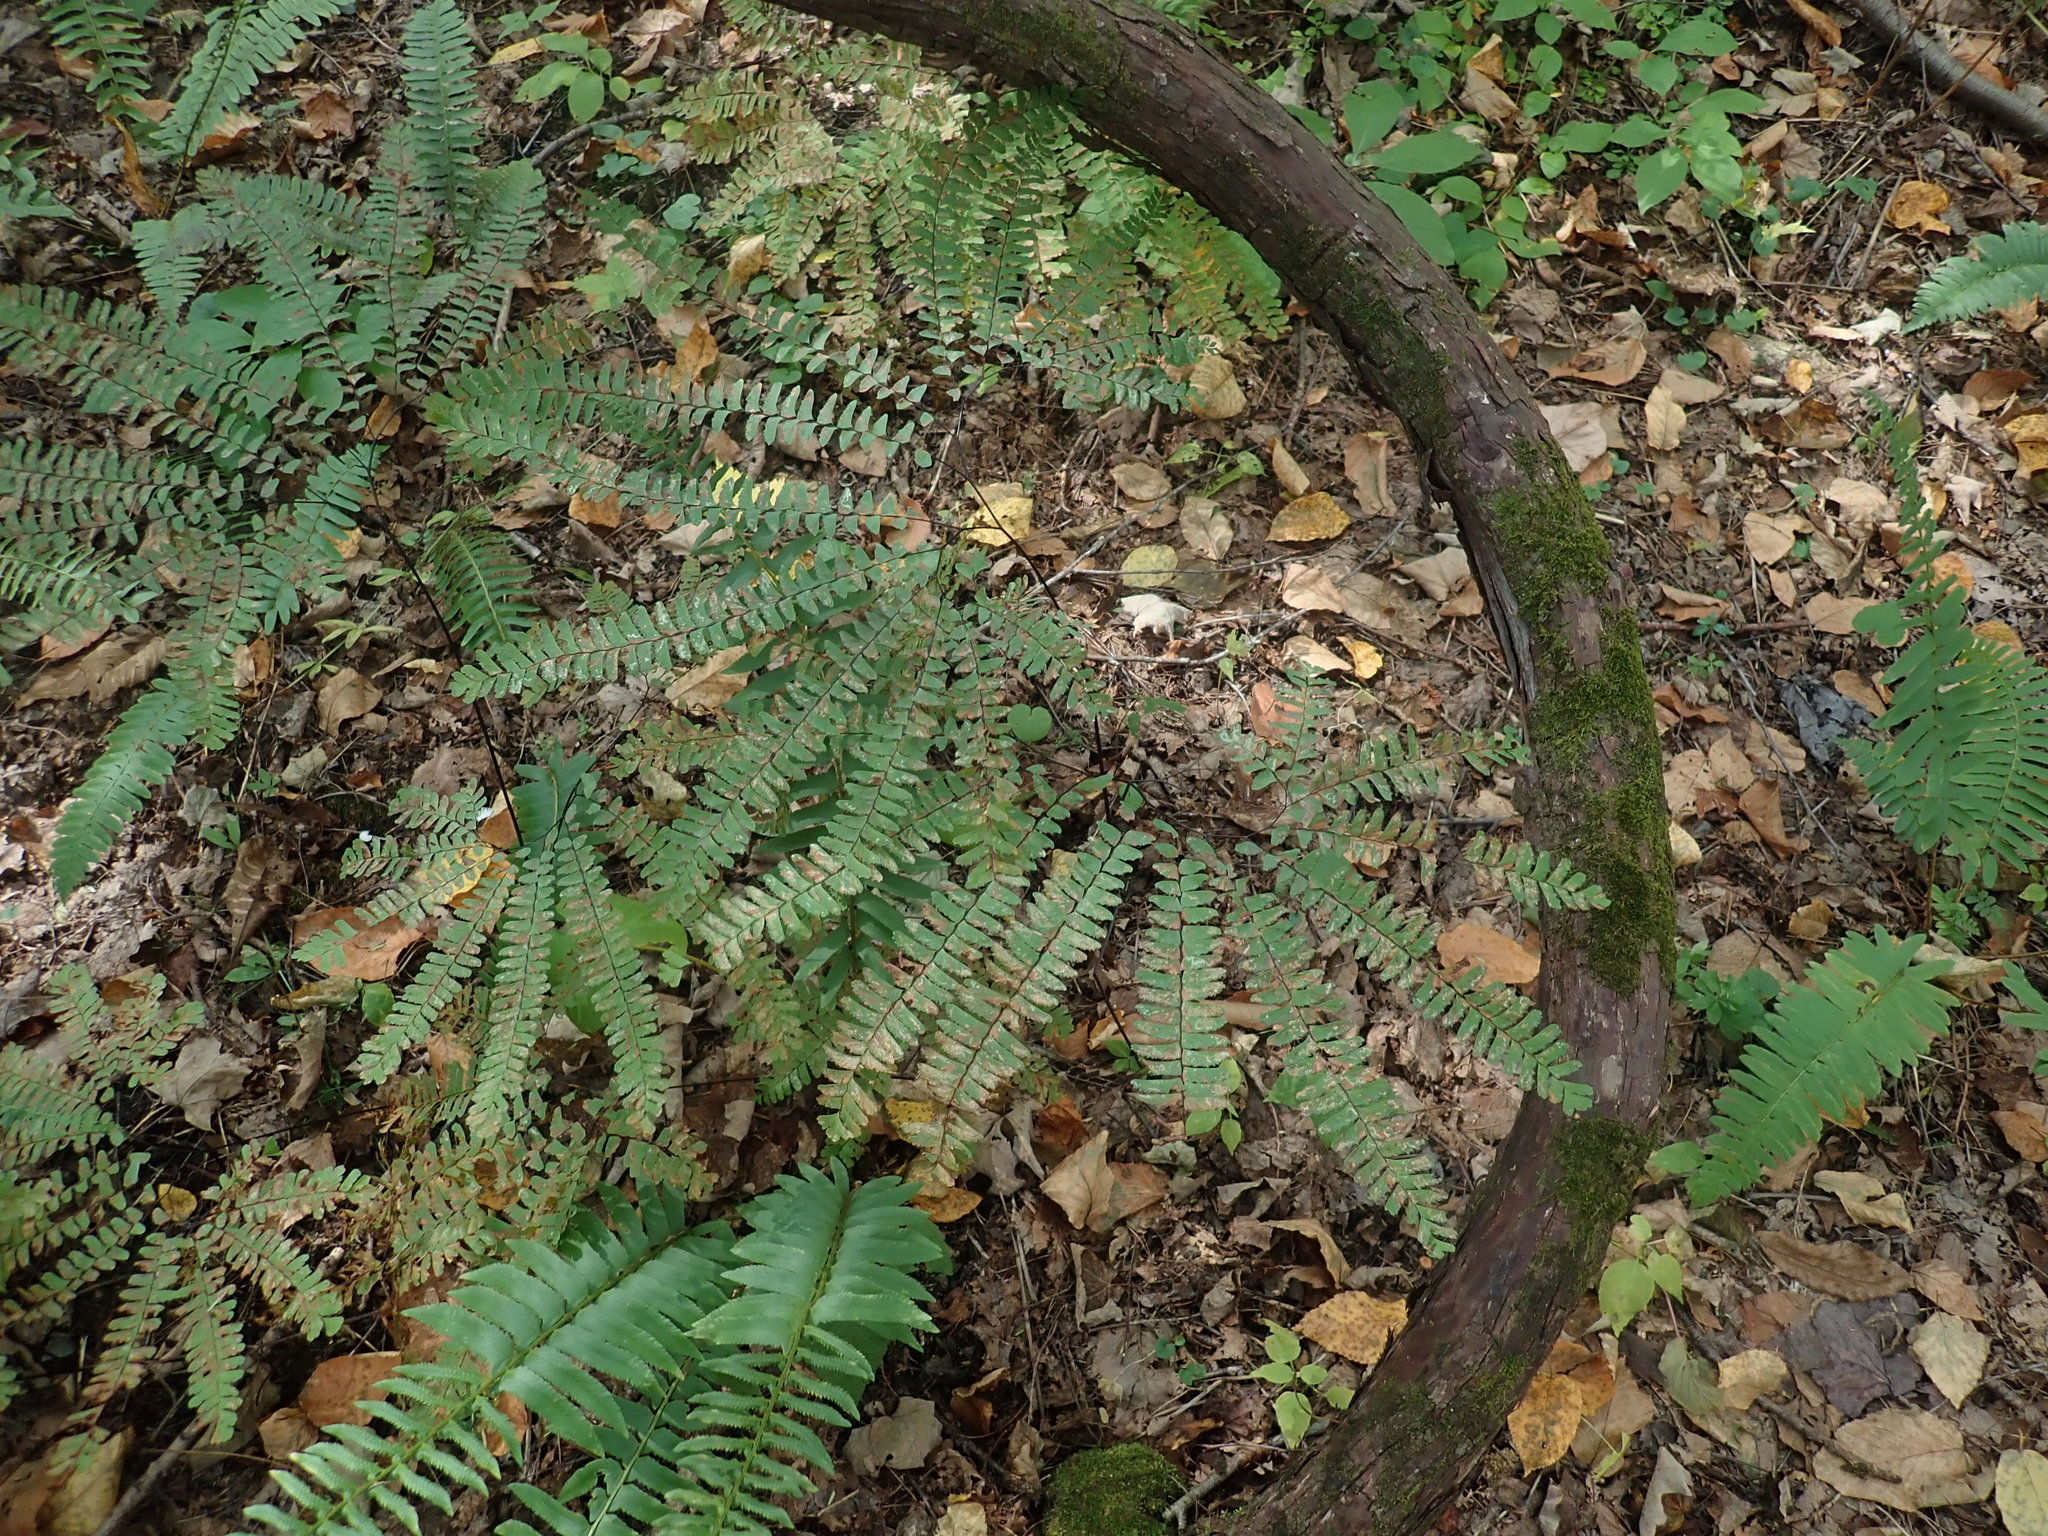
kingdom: Plantae
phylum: Tracheophyta
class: Polypodiopsida
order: Polypodiales
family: Pteridaceae
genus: Adiantum
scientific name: Adiantum pedatum
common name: Five-finger fern
